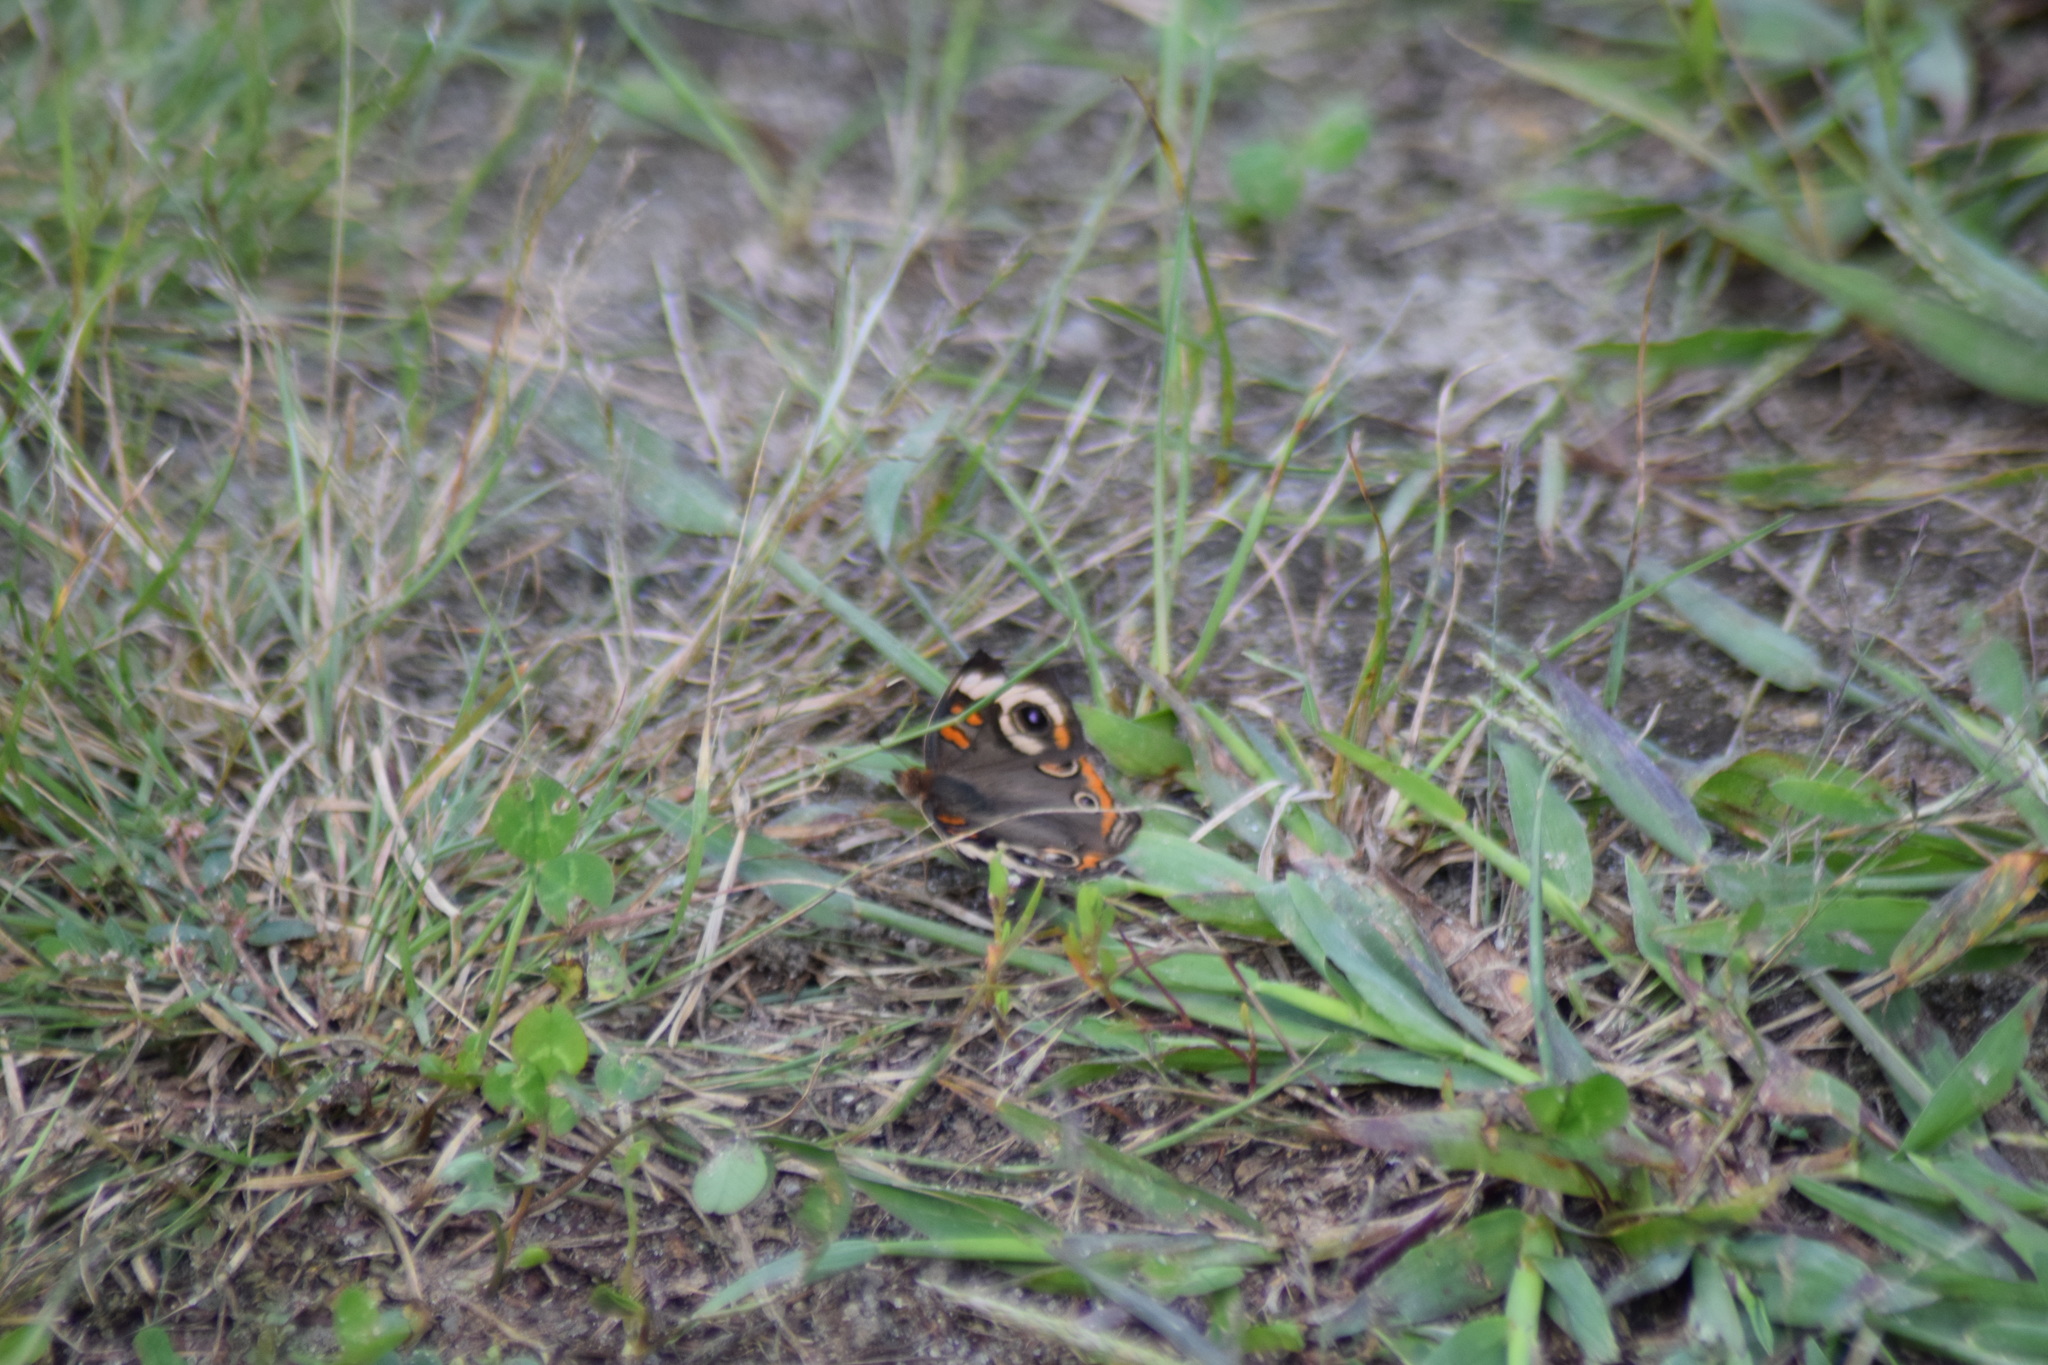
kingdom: Animalia
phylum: Arthropoda
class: Insecta
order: Lepidoptera
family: Nymphalidae
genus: Junonia
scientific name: Junonia coenia
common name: Common buckeye
